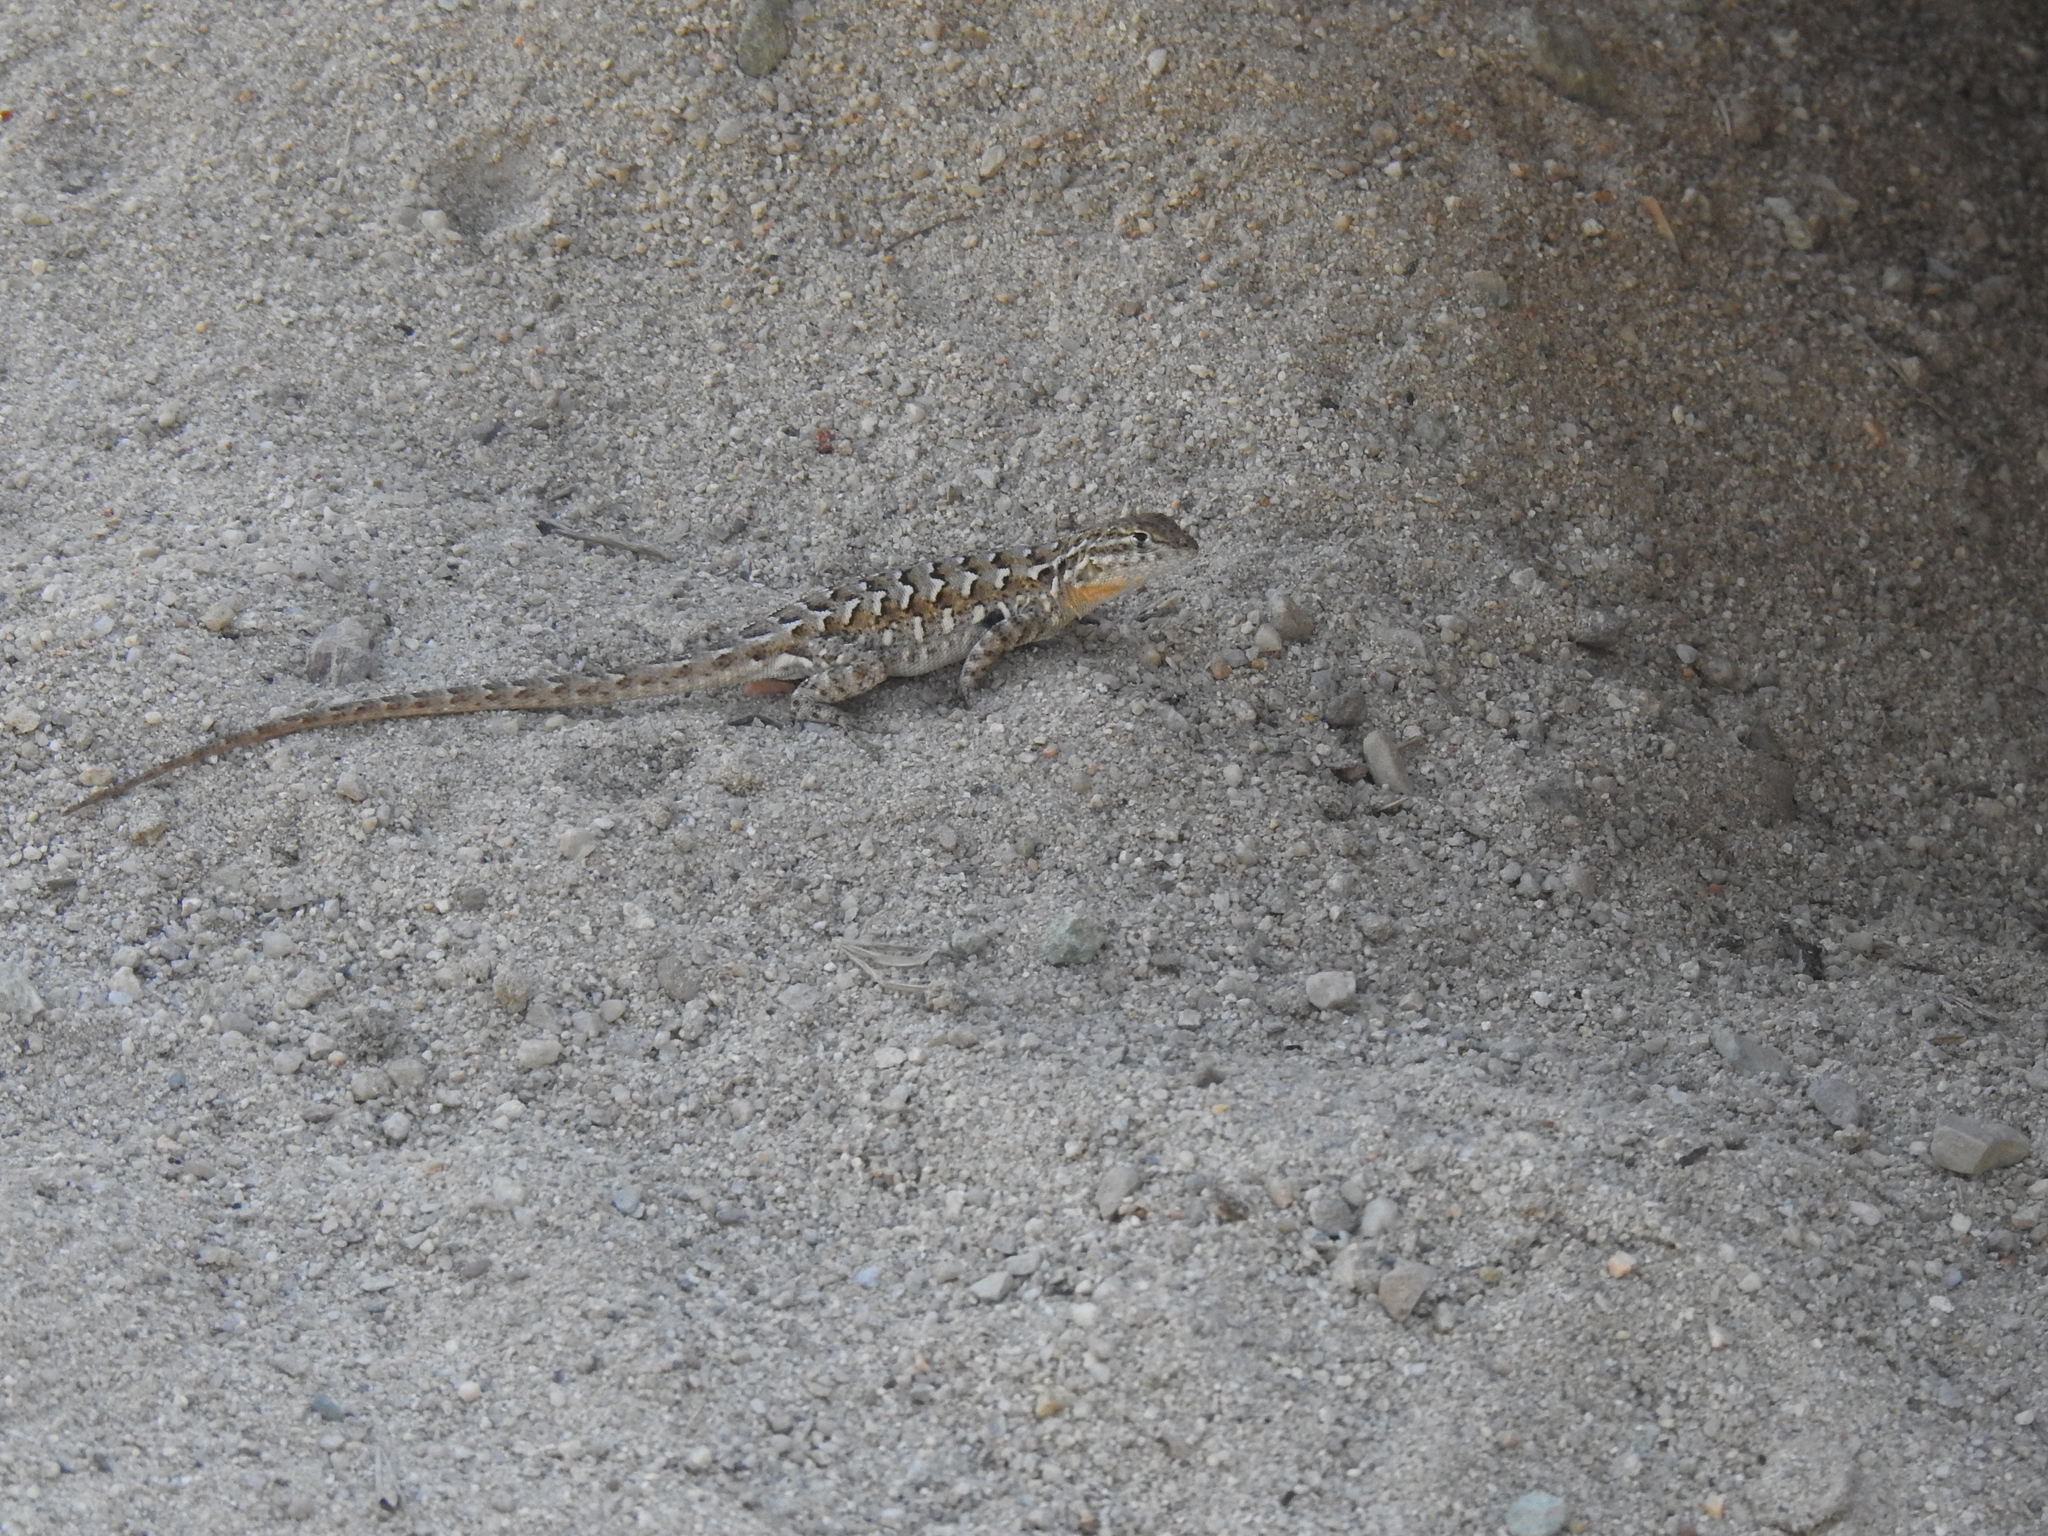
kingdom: Animalia
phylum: Chordata
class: Squamata
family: Phrynosomatidae
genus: Uta
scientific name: Uta stansburiana
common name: Side-blotched lizard
